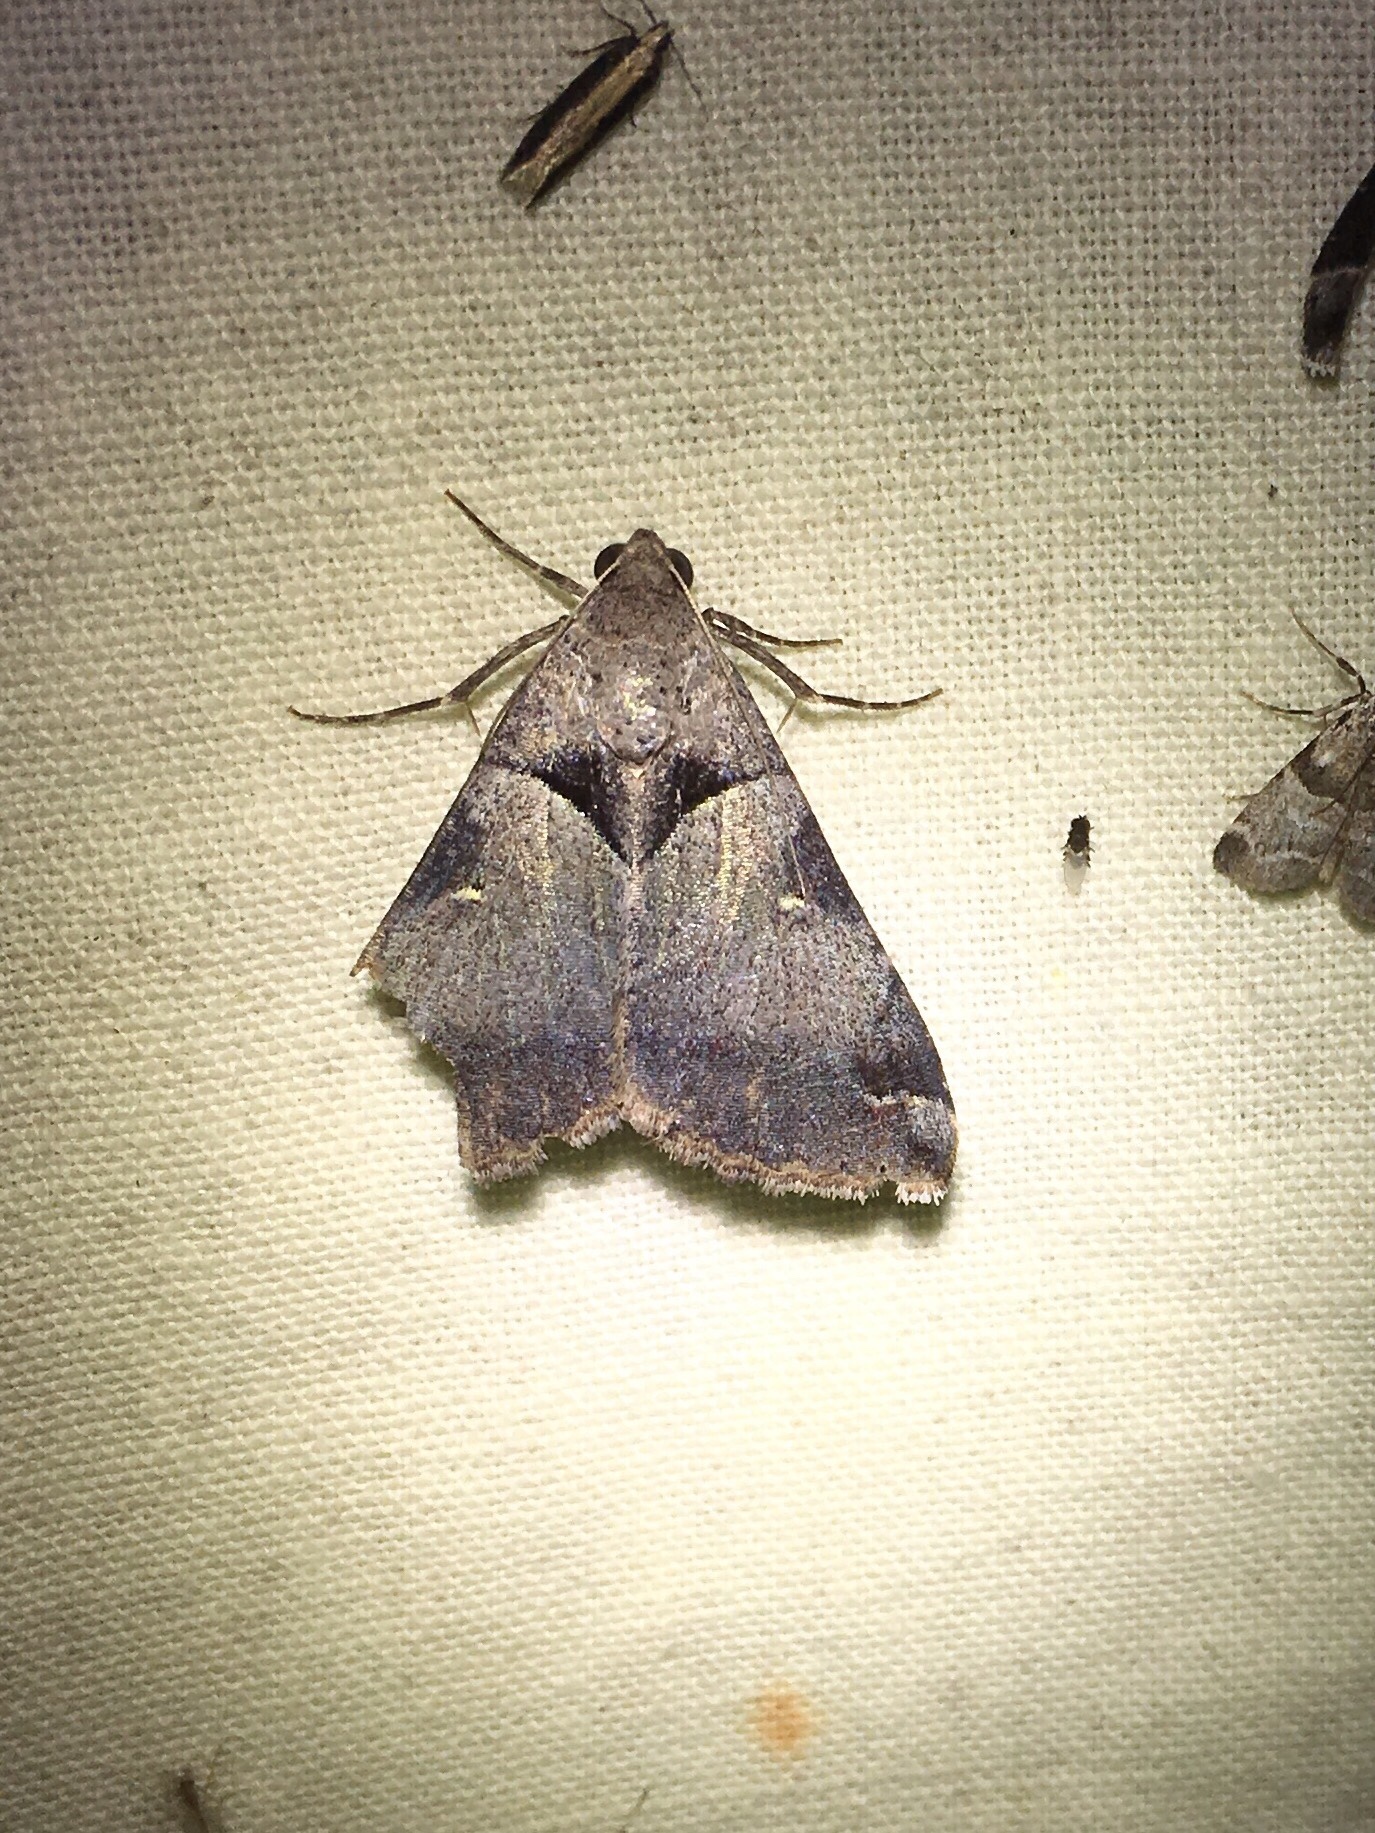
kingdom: Animalia
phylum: Arthropoda
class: Insecta
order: Lepidoptera
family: Erebidae
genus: Melipotis
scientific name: Melipotis florida
